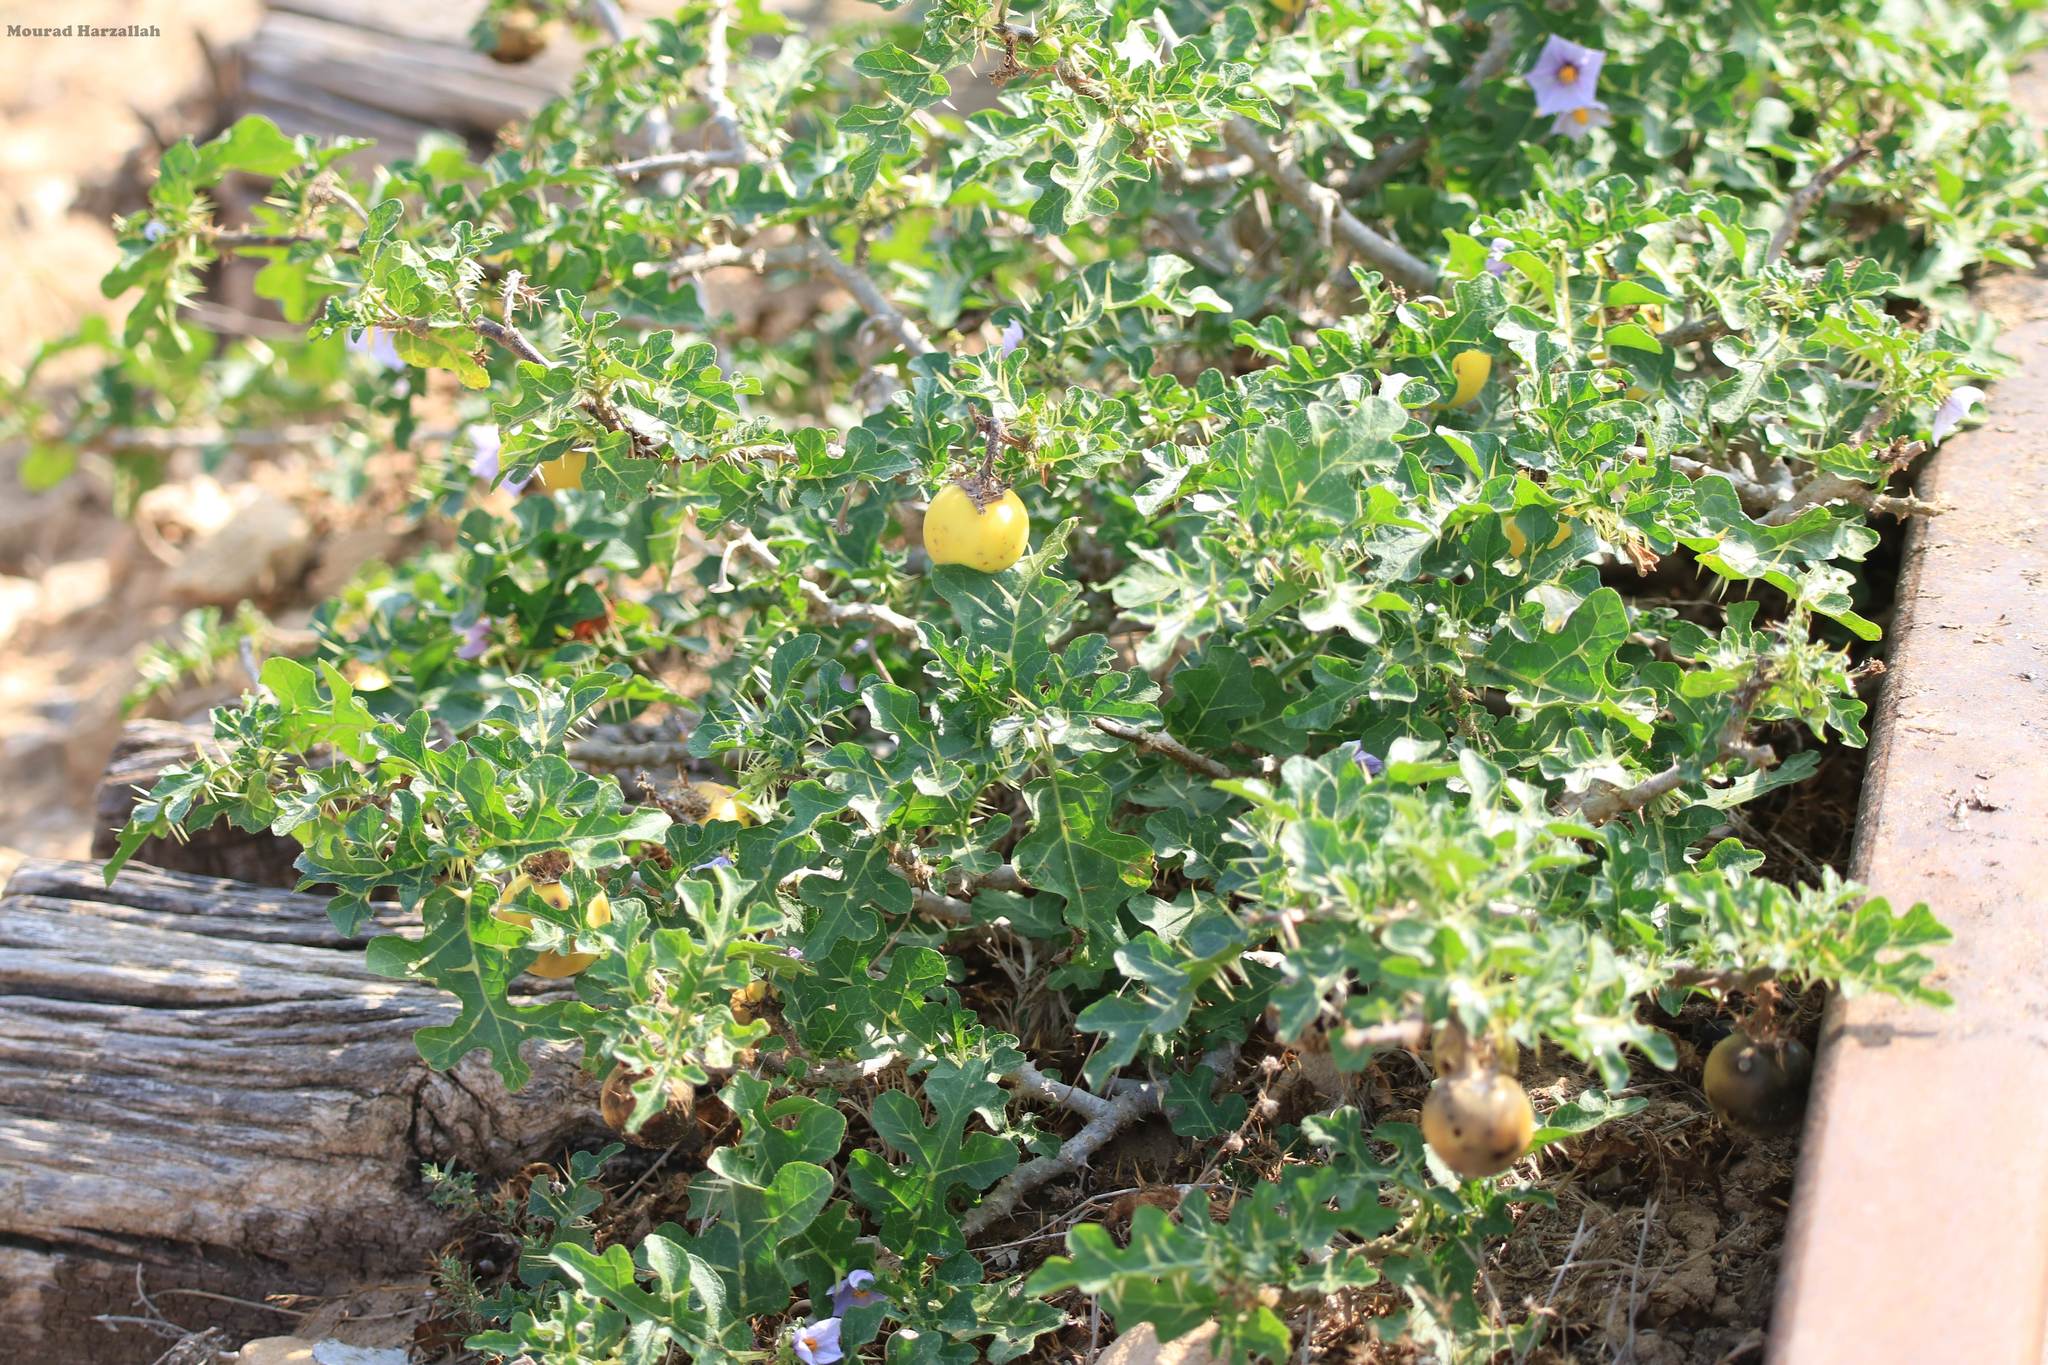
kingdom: Plantae
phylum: Tracheophyta
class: Magnoliopsida
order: Solanales
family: Solanaceae
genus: Solanum
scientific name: Solanum linnaeanum
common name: Nightshade
